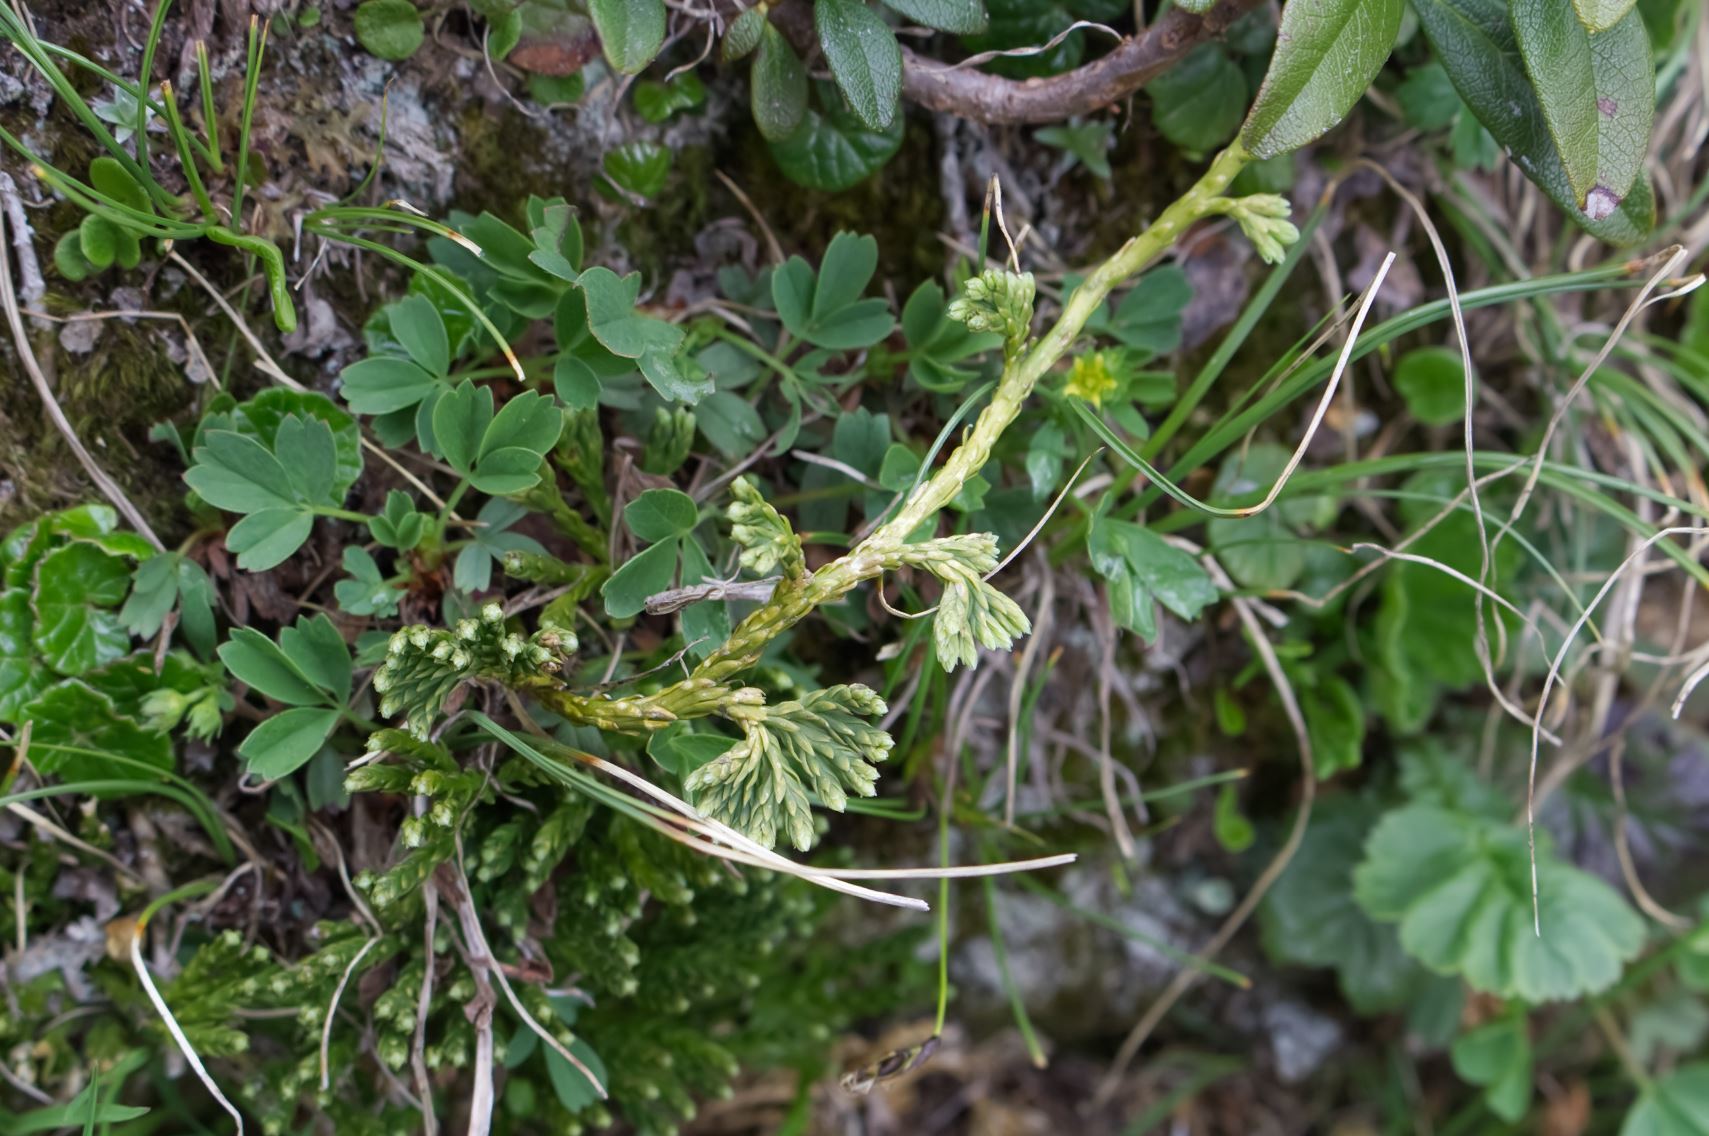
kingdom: Plantae
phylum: Tracheophyta
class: Lycopodiopsida
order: Lycopodiales
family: Lycopodiaceae
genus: Diphasiastrum
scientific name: Diphasiastrum alpinum
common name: Alpine clubmoss
